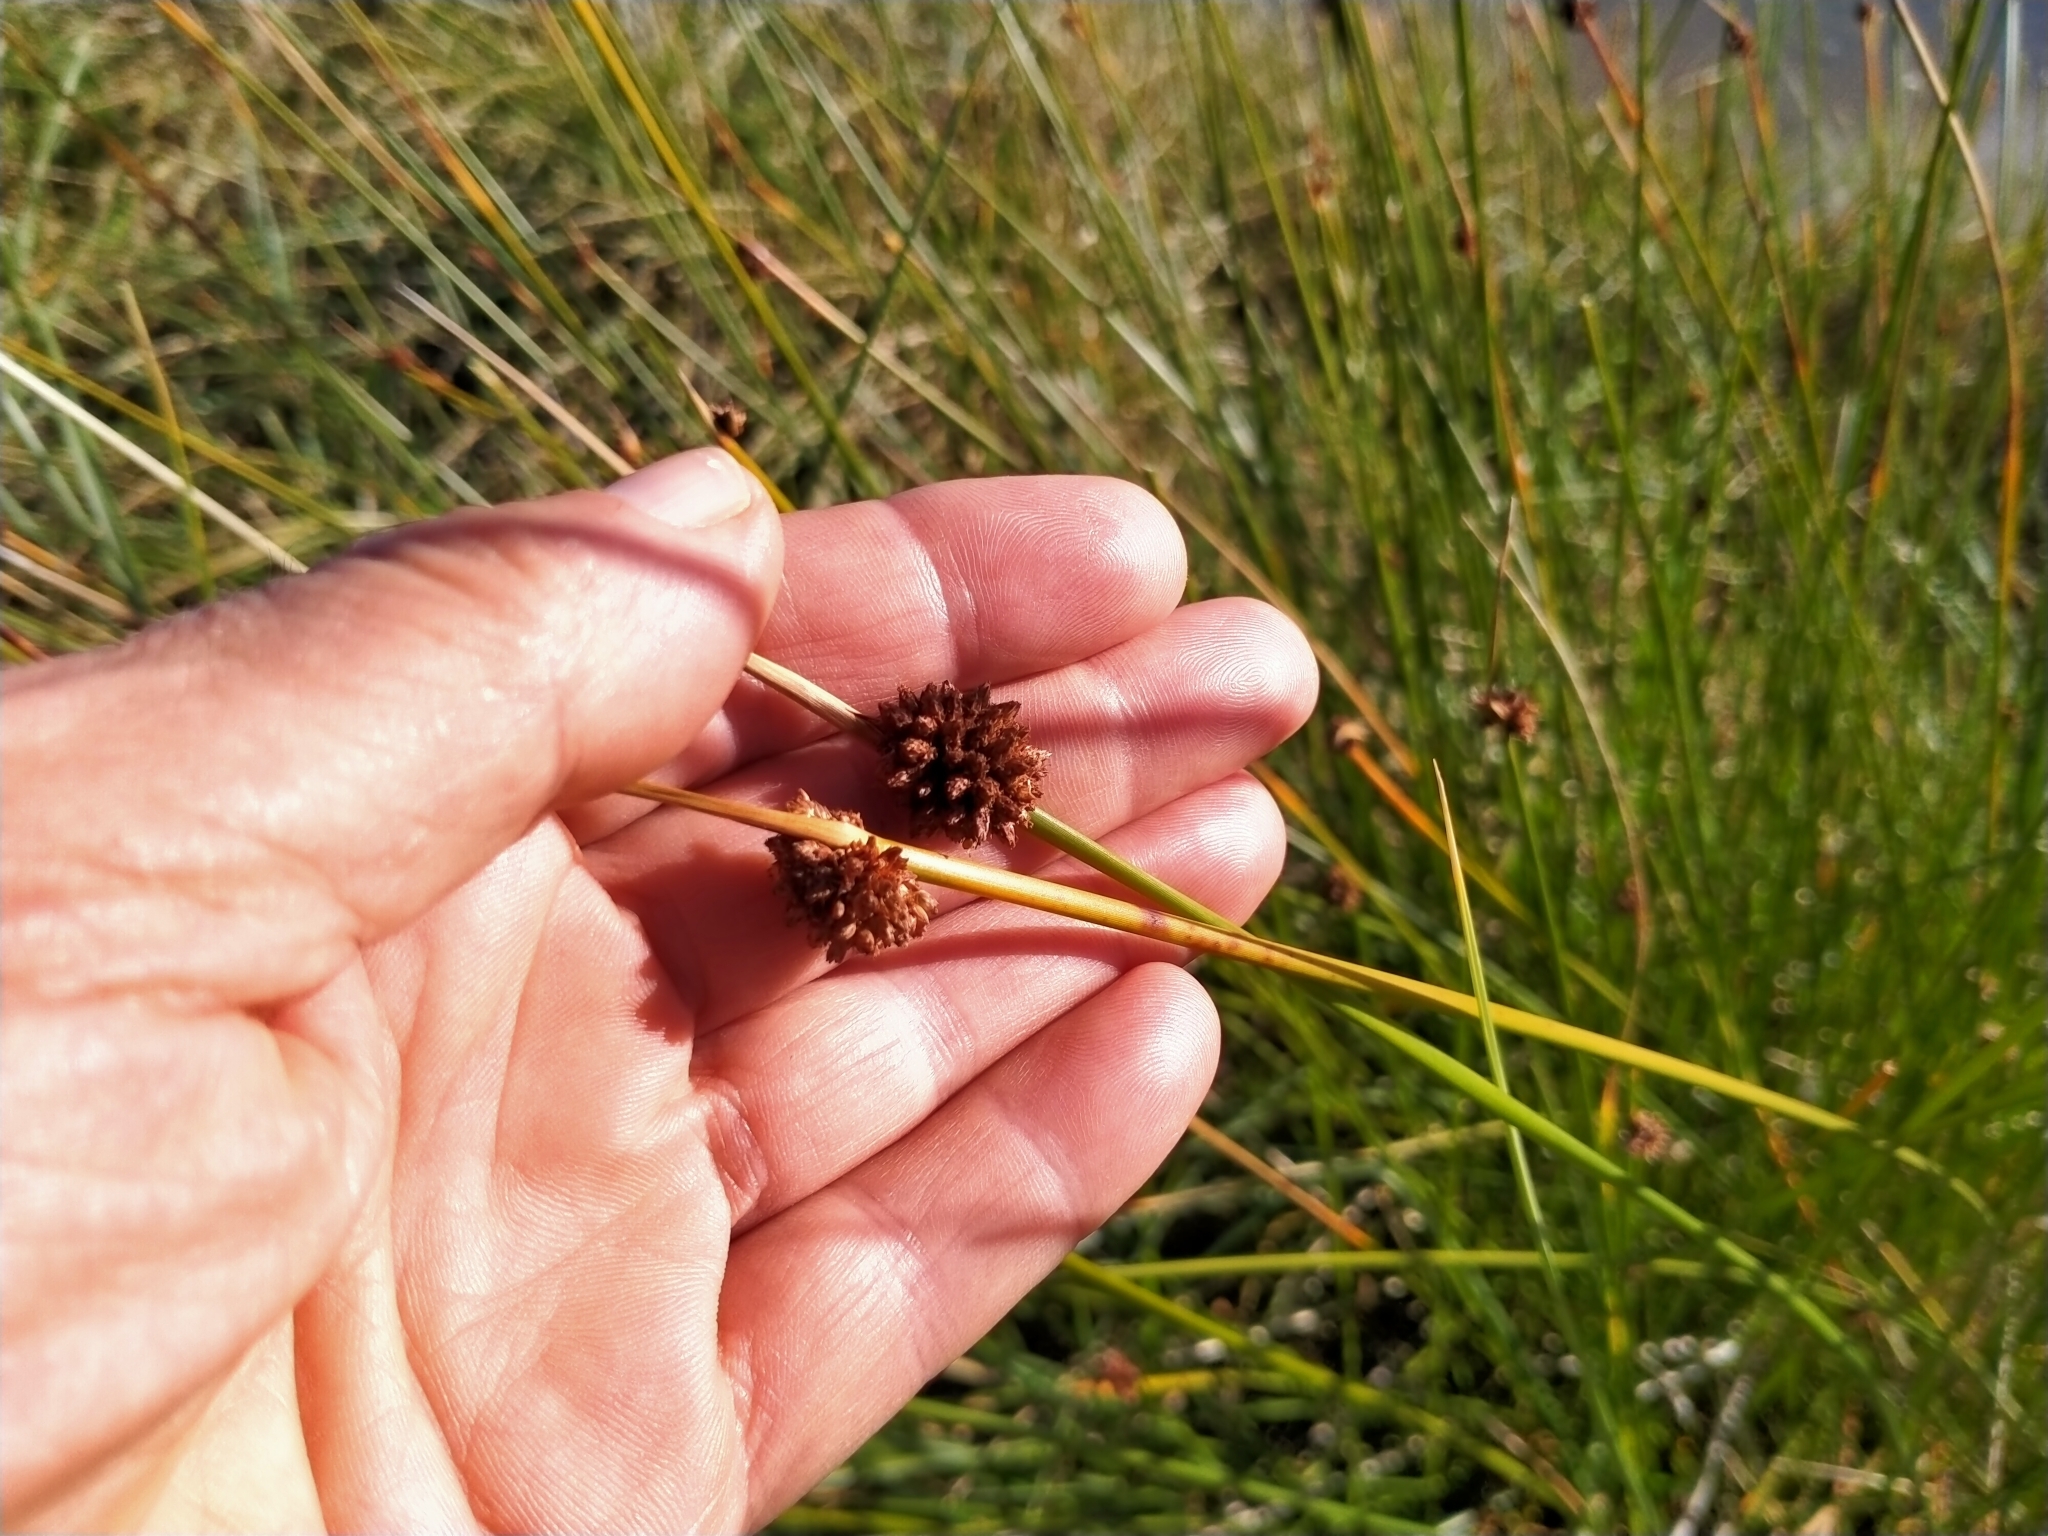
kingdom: Plantae
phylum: Tracheophyta
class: Liliopsida
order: Poales
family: Cyperaceae
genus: Ficinia
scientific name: Ficinia nodosa
